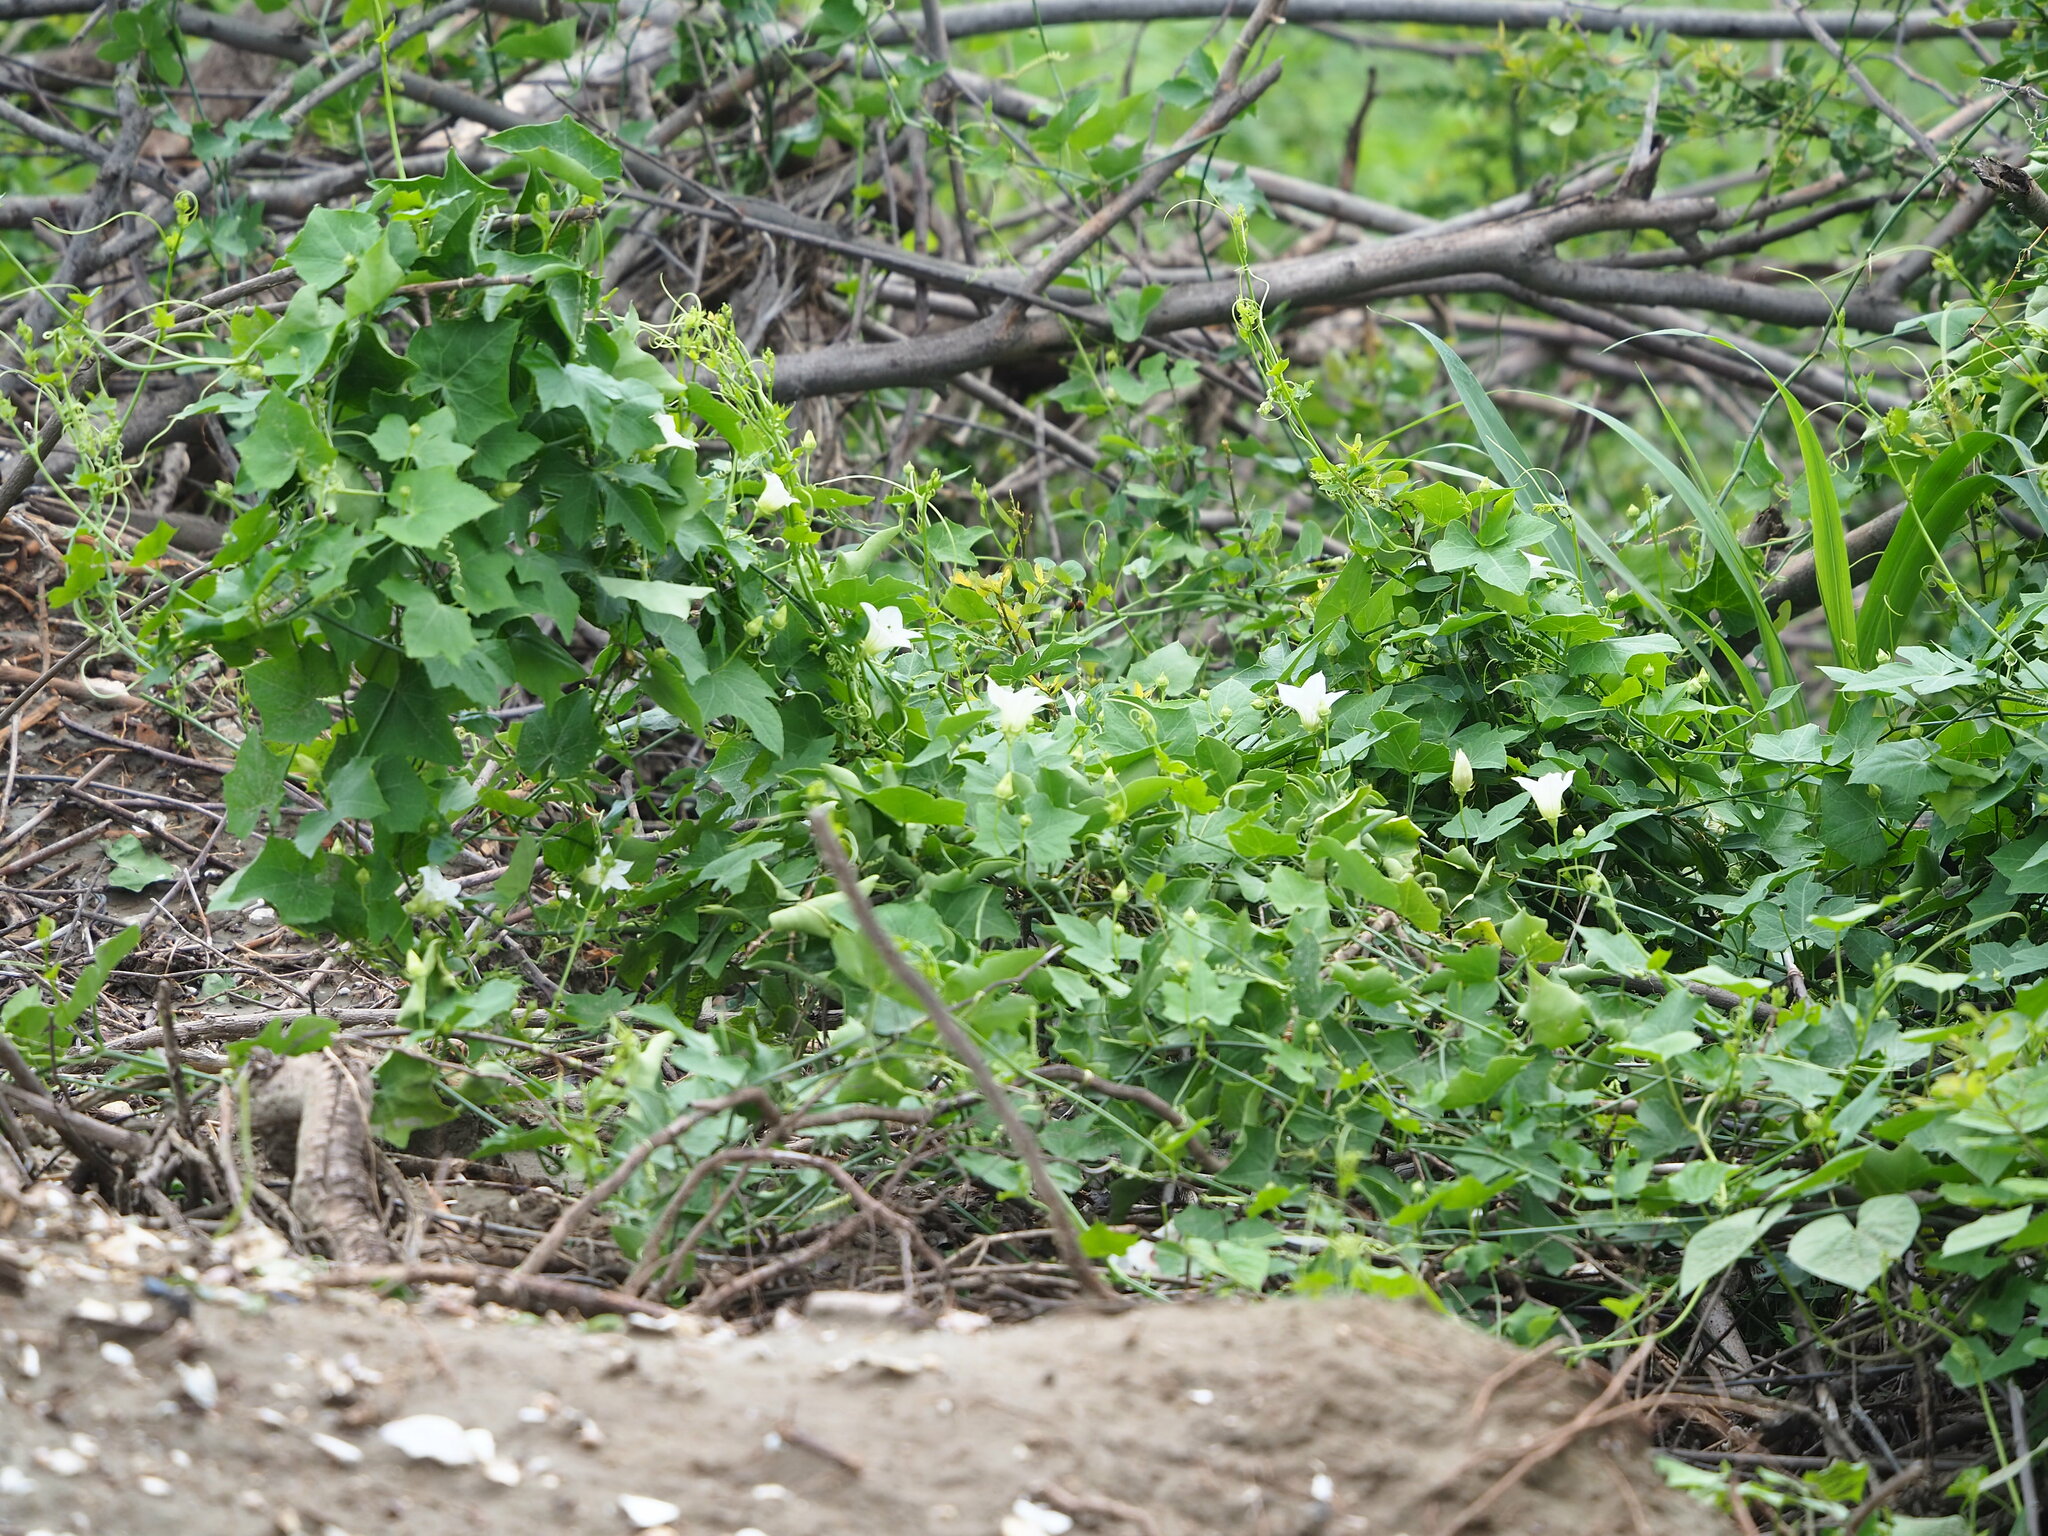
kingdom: Plantae
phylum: Tracheophyta
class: Magnoliopsida
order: Cucurbitales
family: Cucurbitaceae
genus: Coccinia
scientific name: Coccinia grandis
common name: Ivy gourd
